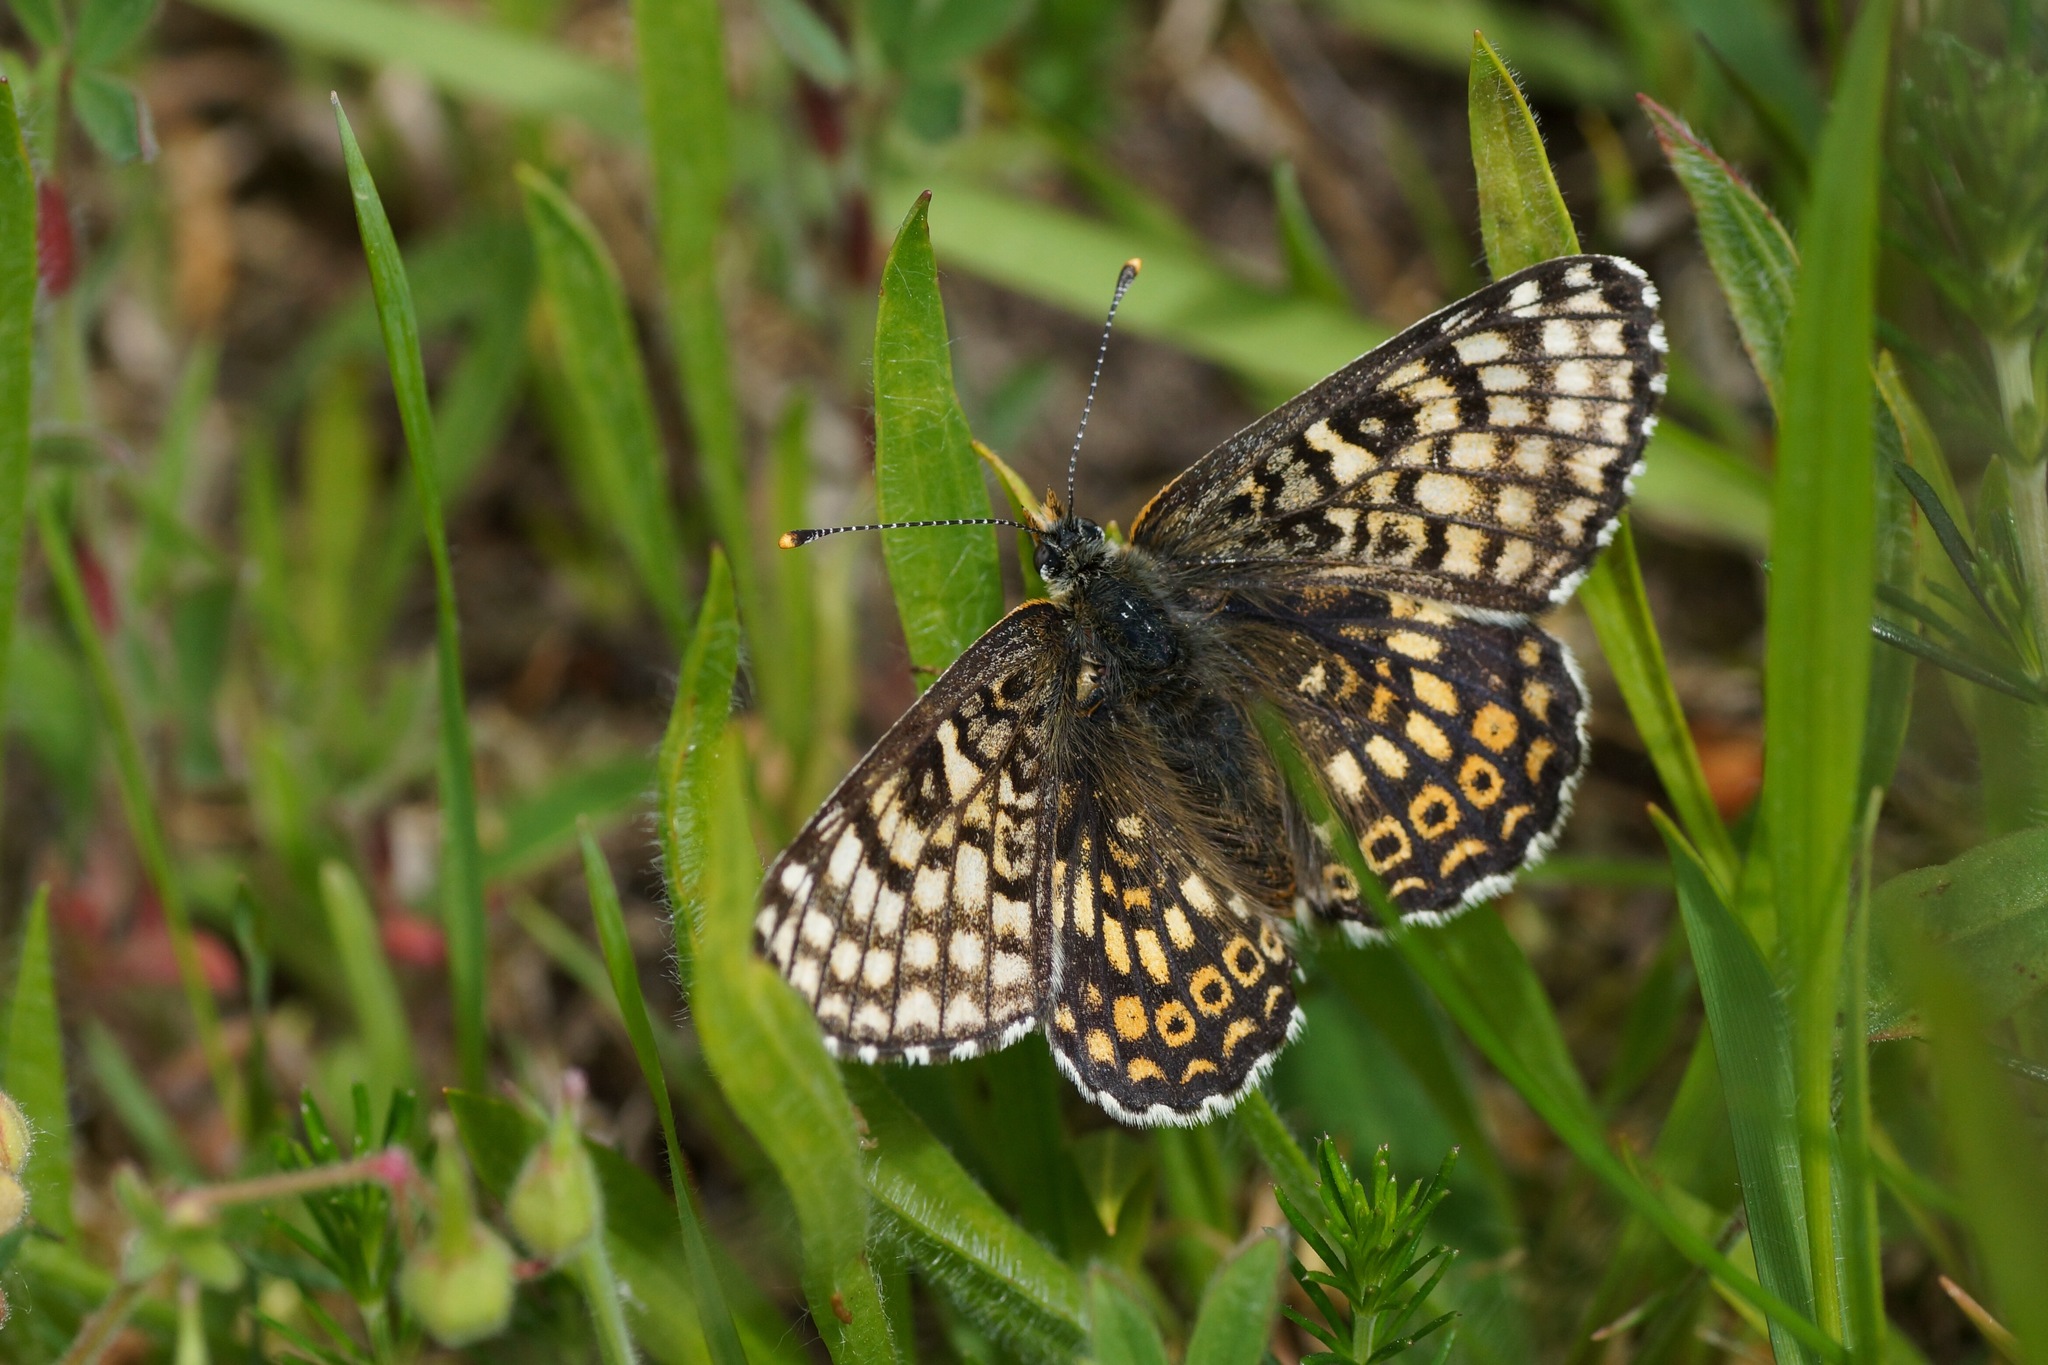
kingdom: Animalia
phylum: Arthropoda
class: Insecta
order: Lepidoptera
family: Nymphalidae
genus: Melitaea
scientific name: Melitaea cinxia
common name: Glanville fritillary
